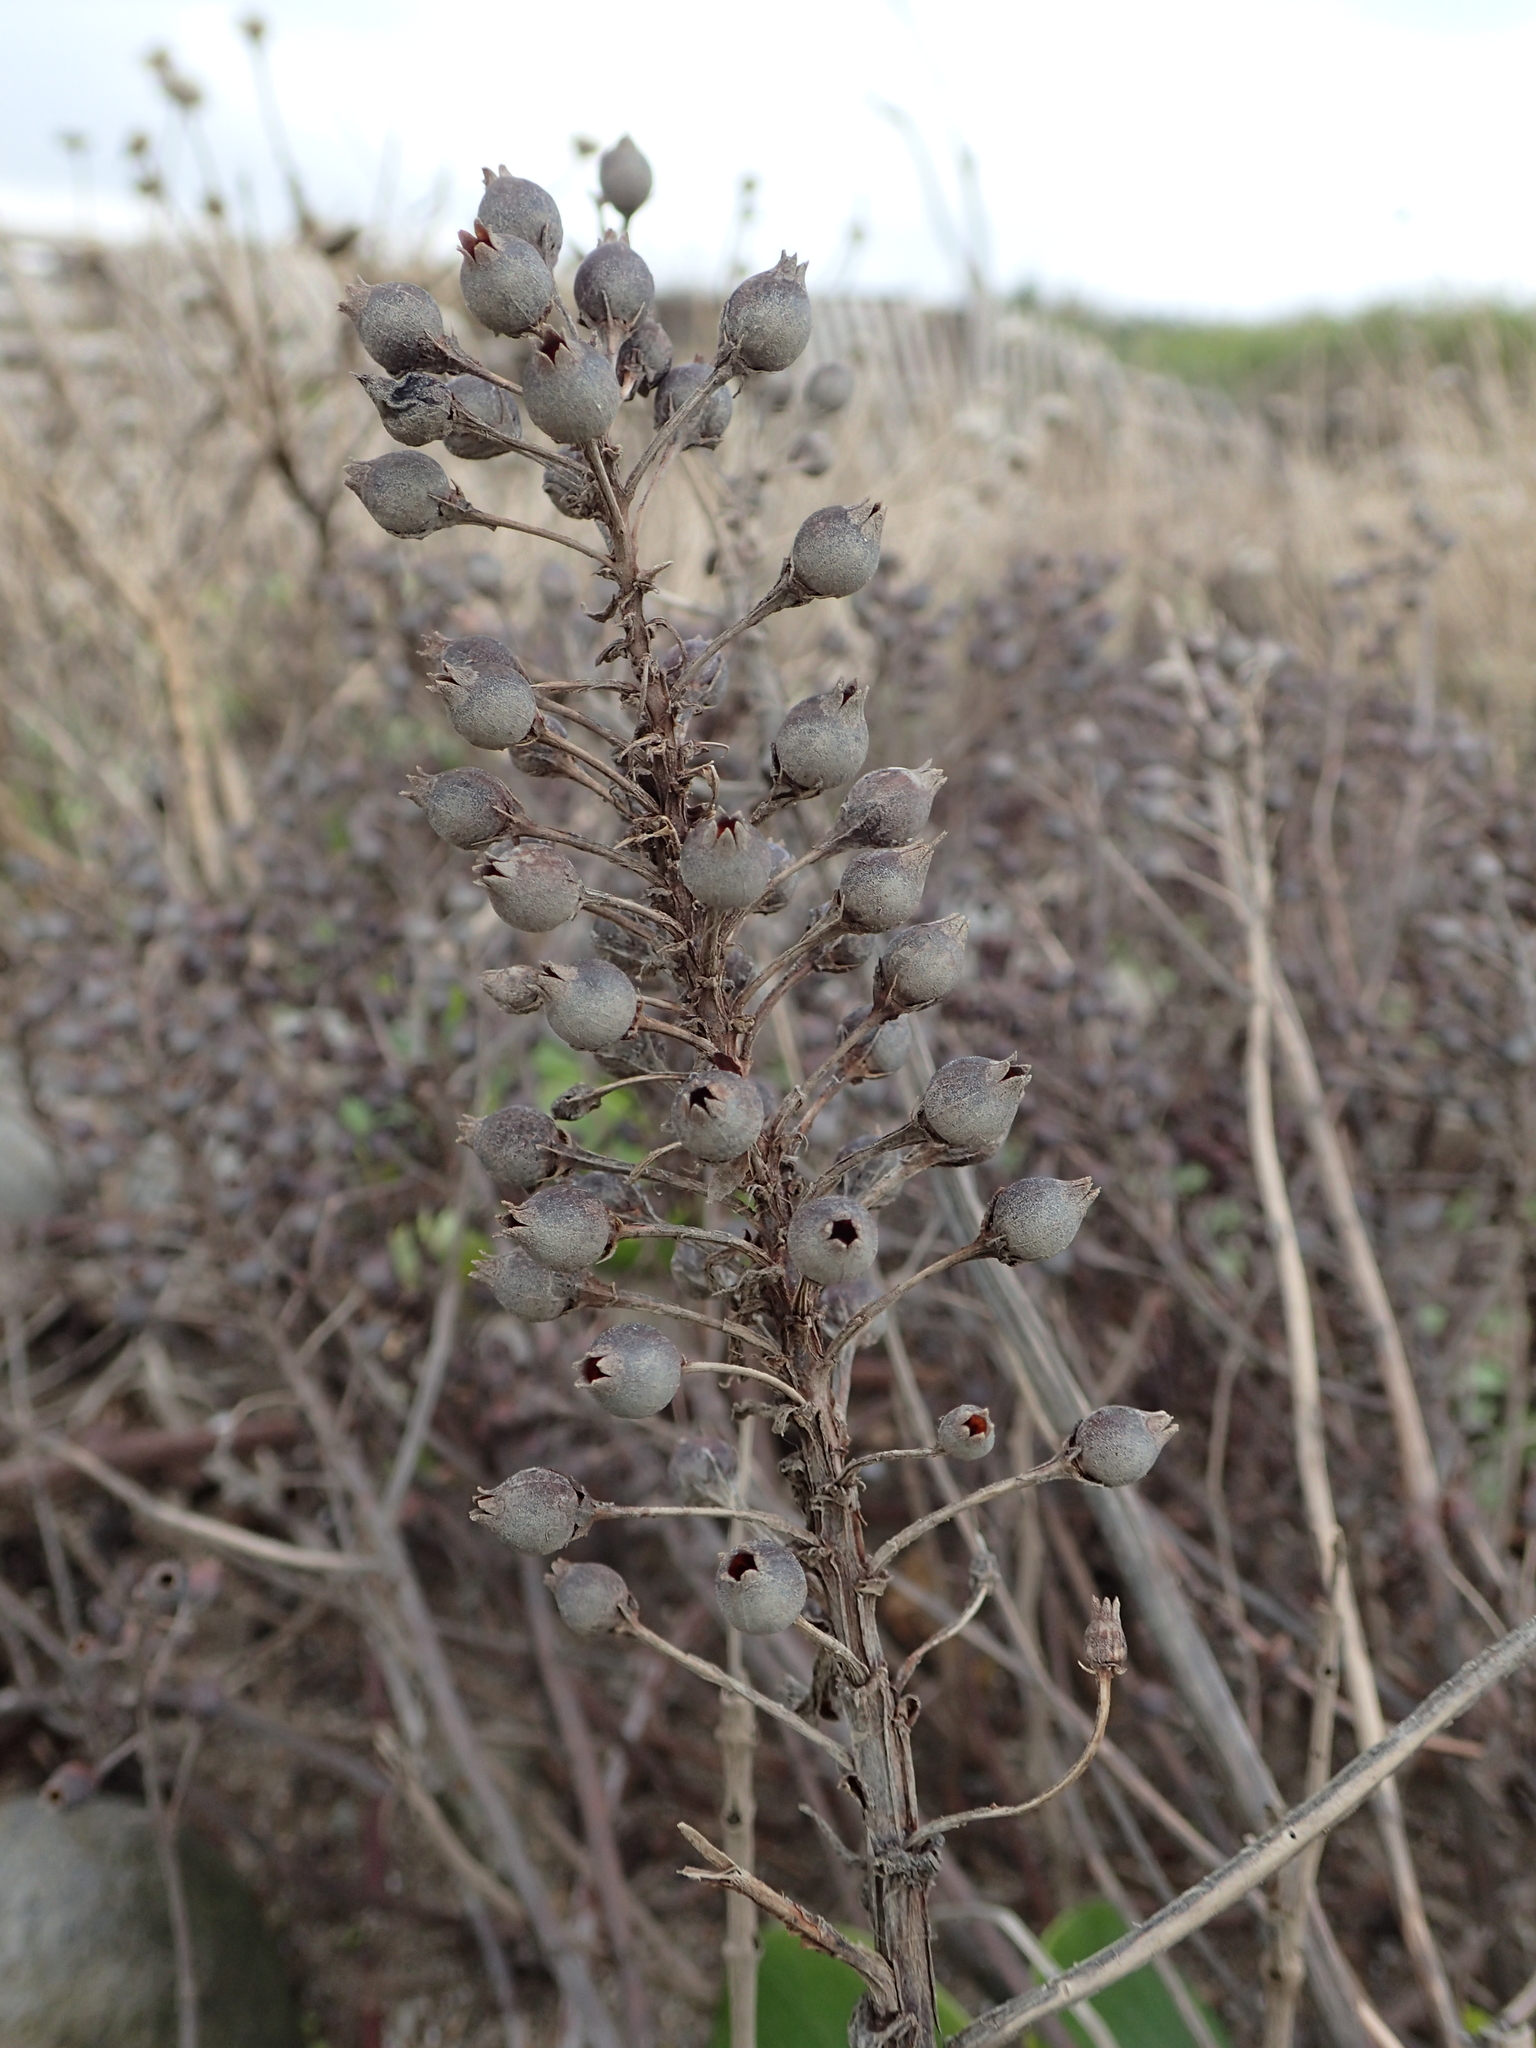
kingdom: Plantae
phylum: Tracheophyta
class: Magnoliopsida
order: Ericales
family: Primulaceae
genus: Lysimachia
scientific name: Lysimachia mauritiana
